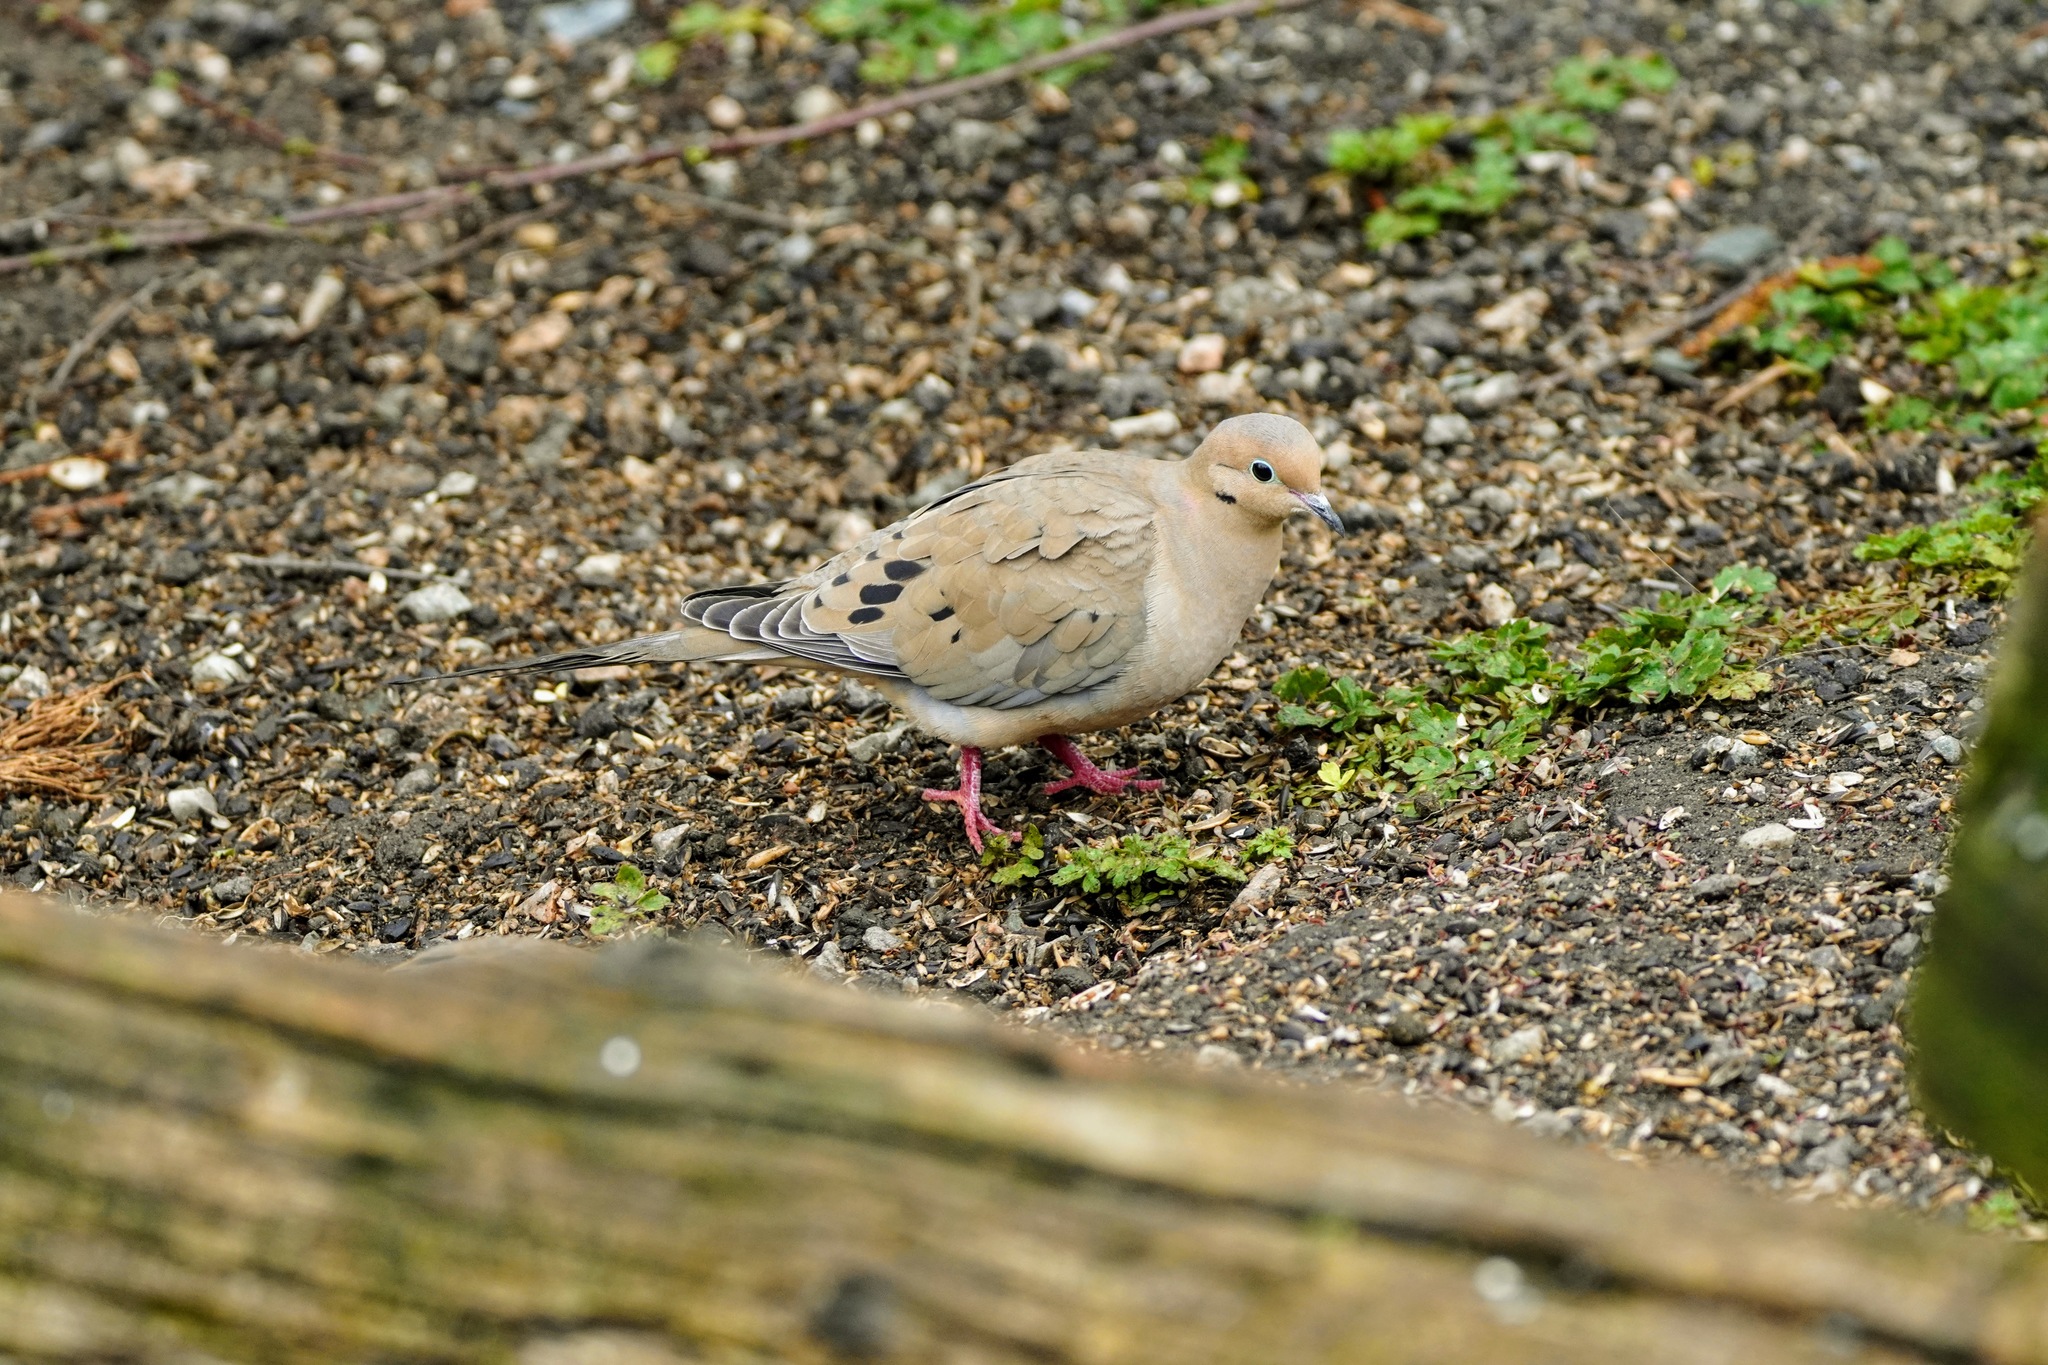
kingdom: Animalia
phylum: Chordata
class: Aves
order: Columbiformes
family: Columbidae
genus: Zenaida
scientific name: Zenaida macroura
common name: Mourning dove
